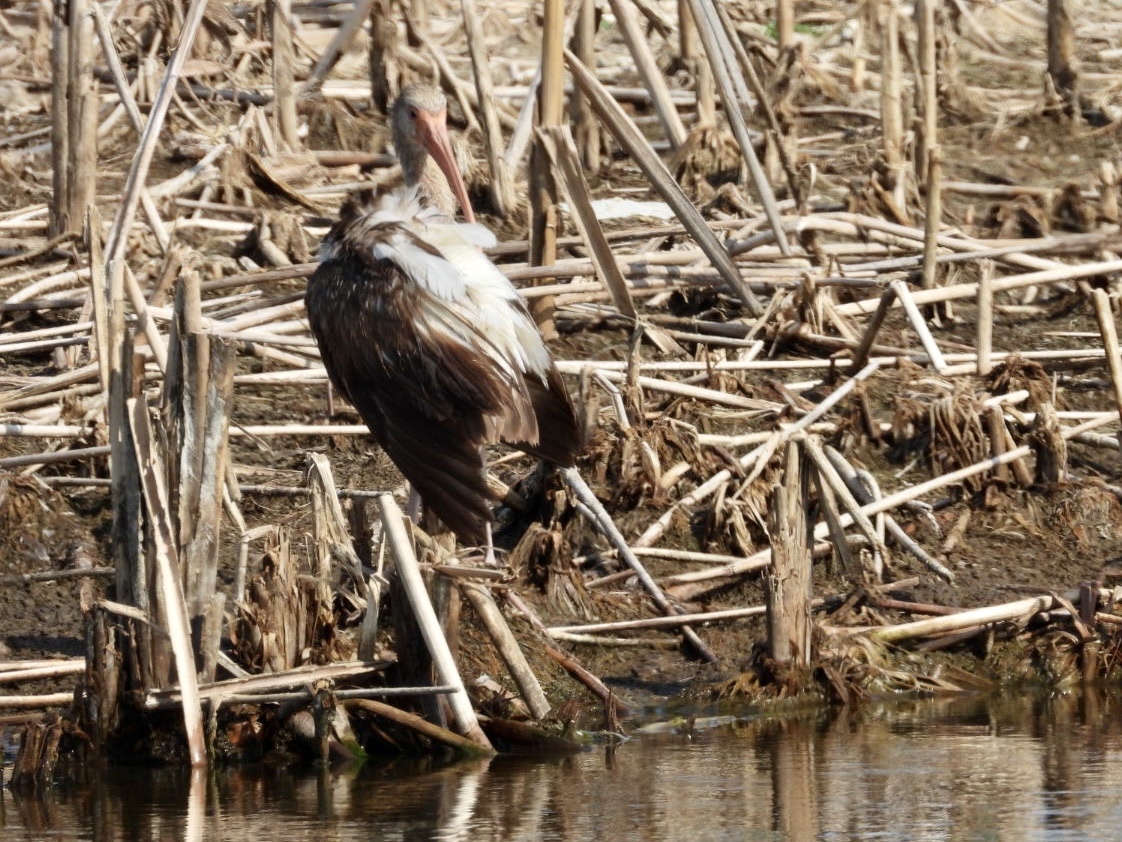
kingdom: Animalia
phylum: Chordata
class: Aves
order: Pelecaniformes
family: Threskiornithidae
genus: Eudocimus
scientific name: Eudocimus albus
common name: White ibis
